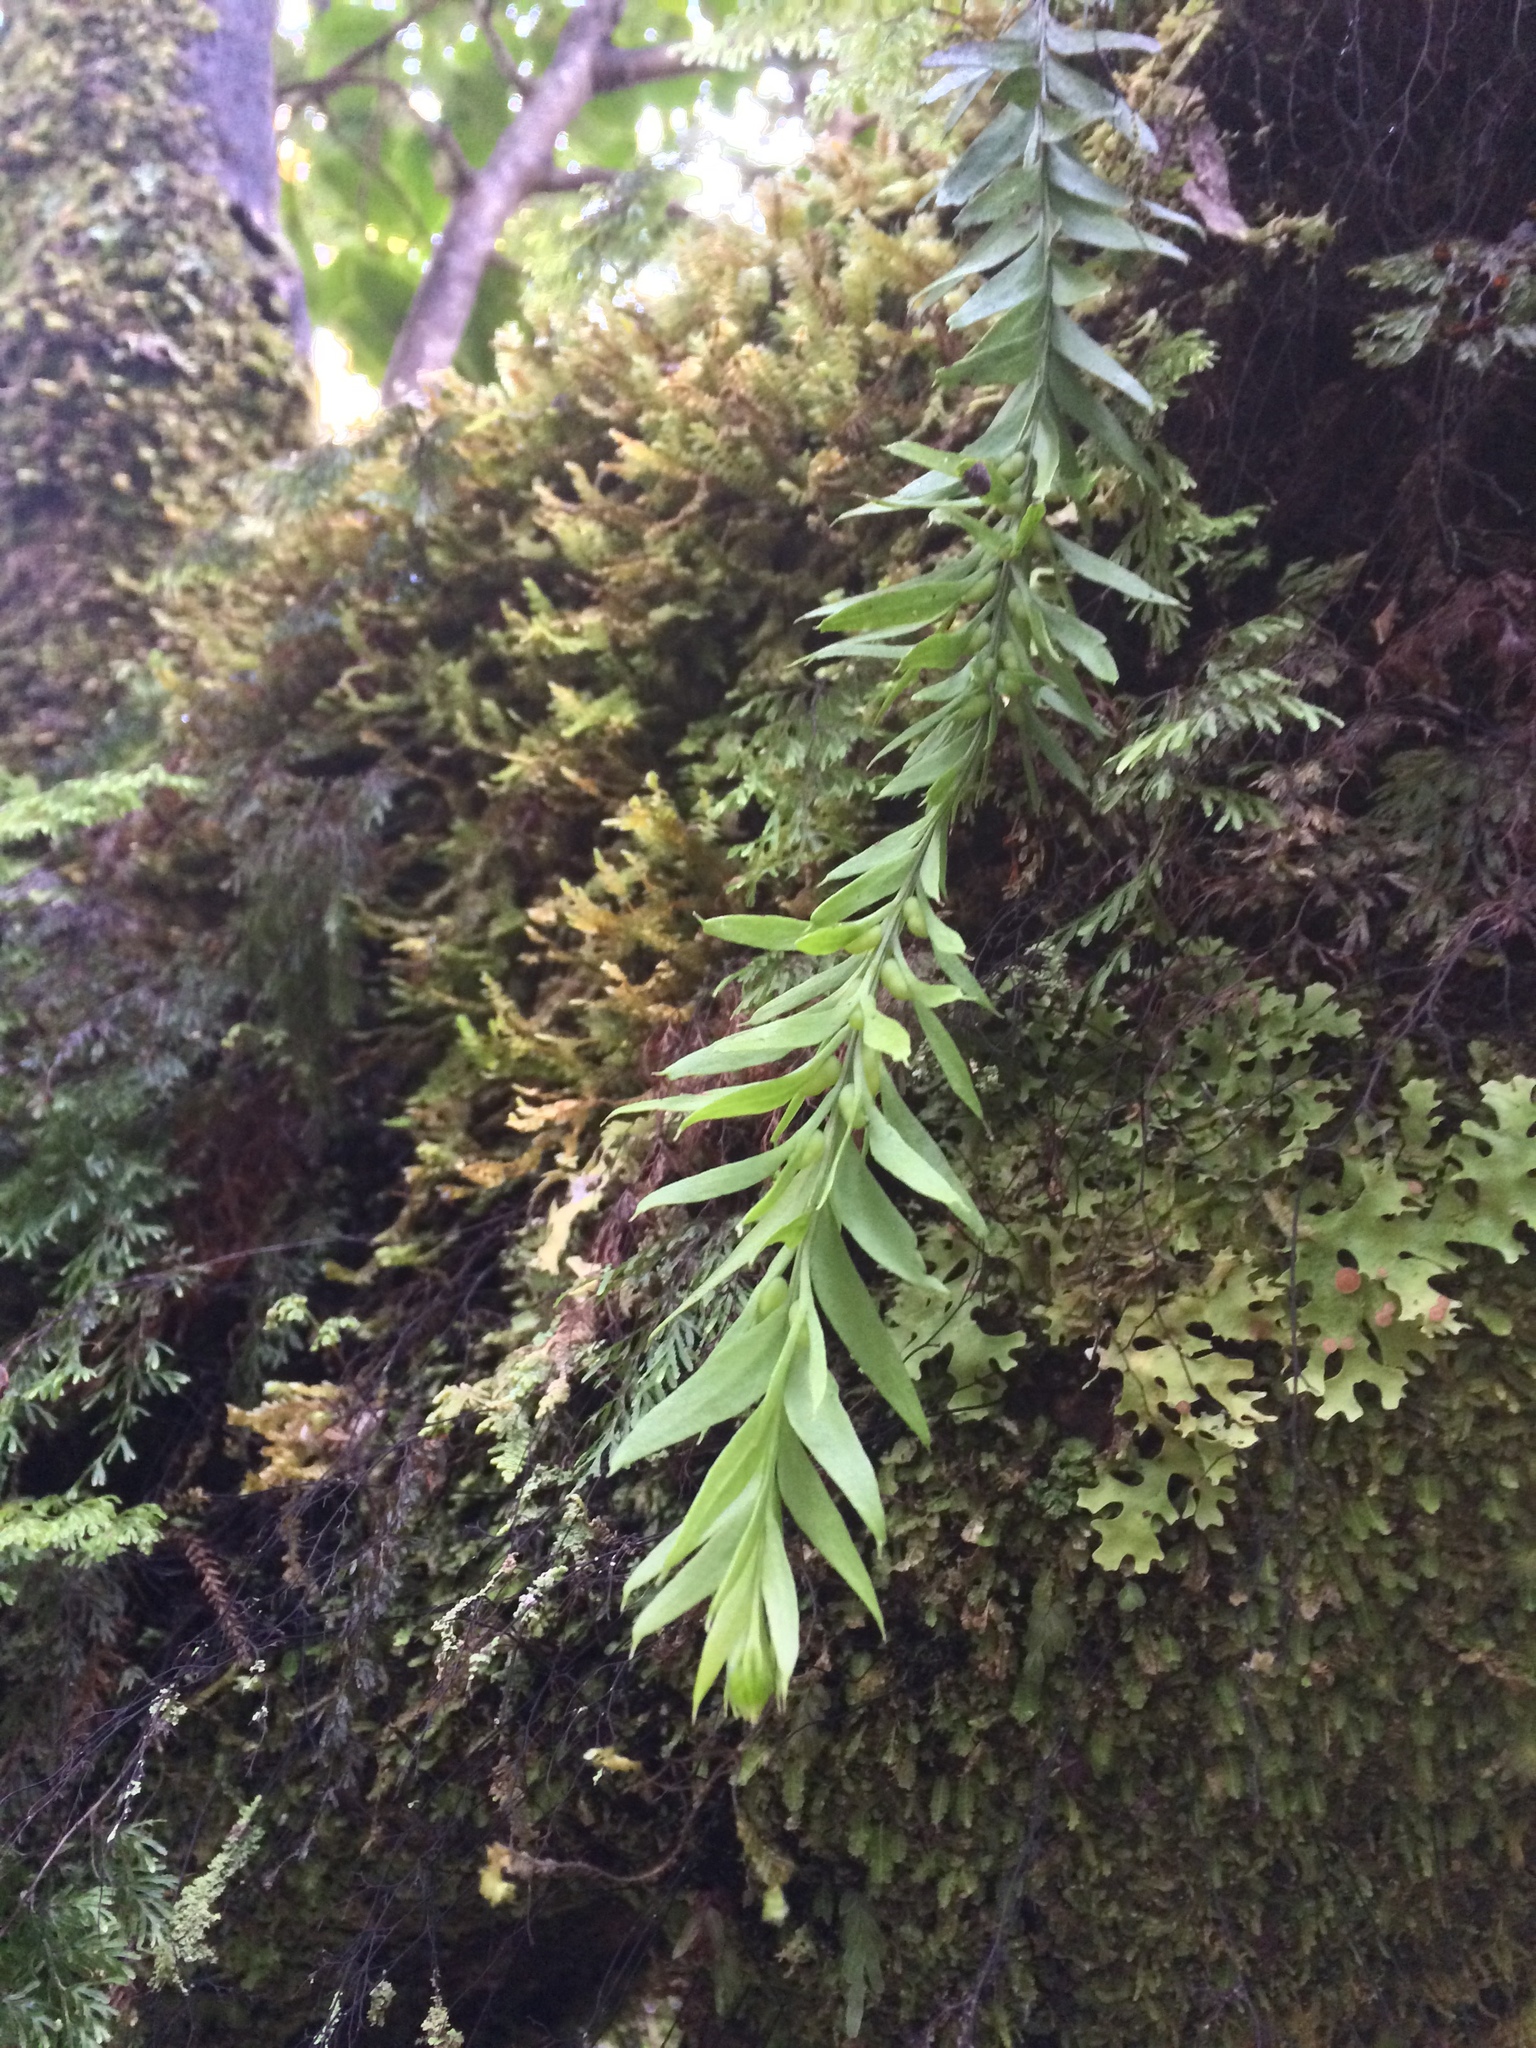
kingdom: Plantae
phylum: Tracheophyta
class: Polypodiopsida
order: Psilotales
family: Psilotaceae
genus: Tmesipteris
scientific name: Tmesipteris elongata
